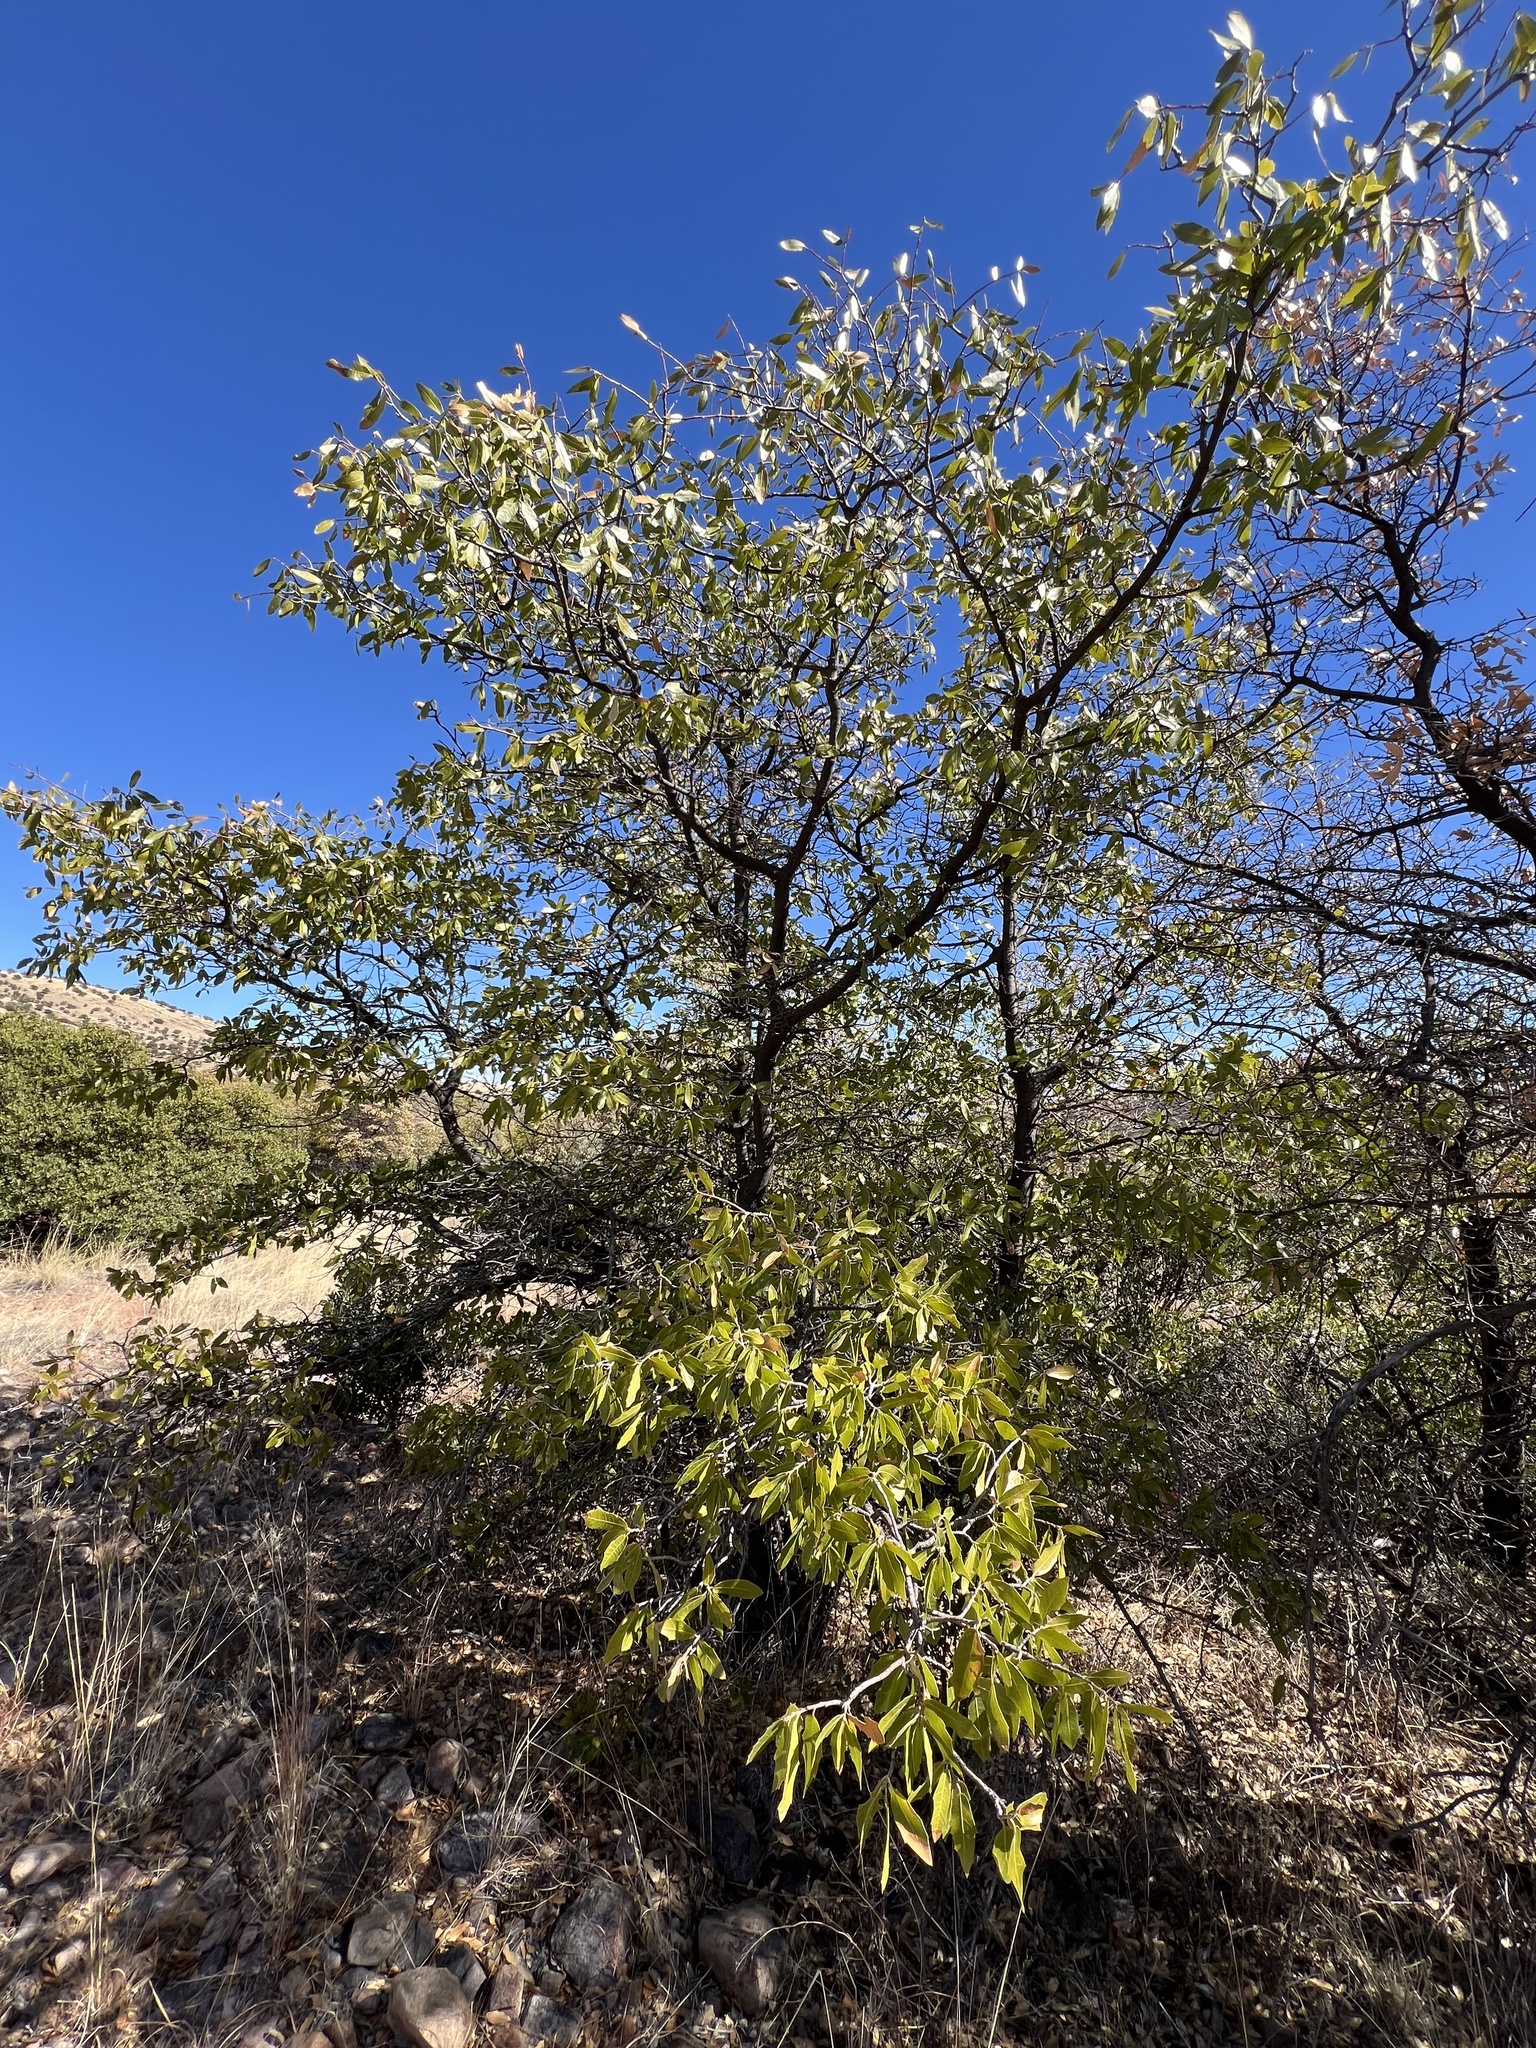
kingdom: Plantae
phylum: Tracheophyta
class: Magnoliopsida
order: Fagales
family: Fagaceae
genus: Quercus
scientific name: Quercus emoryi
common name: Emory oak
